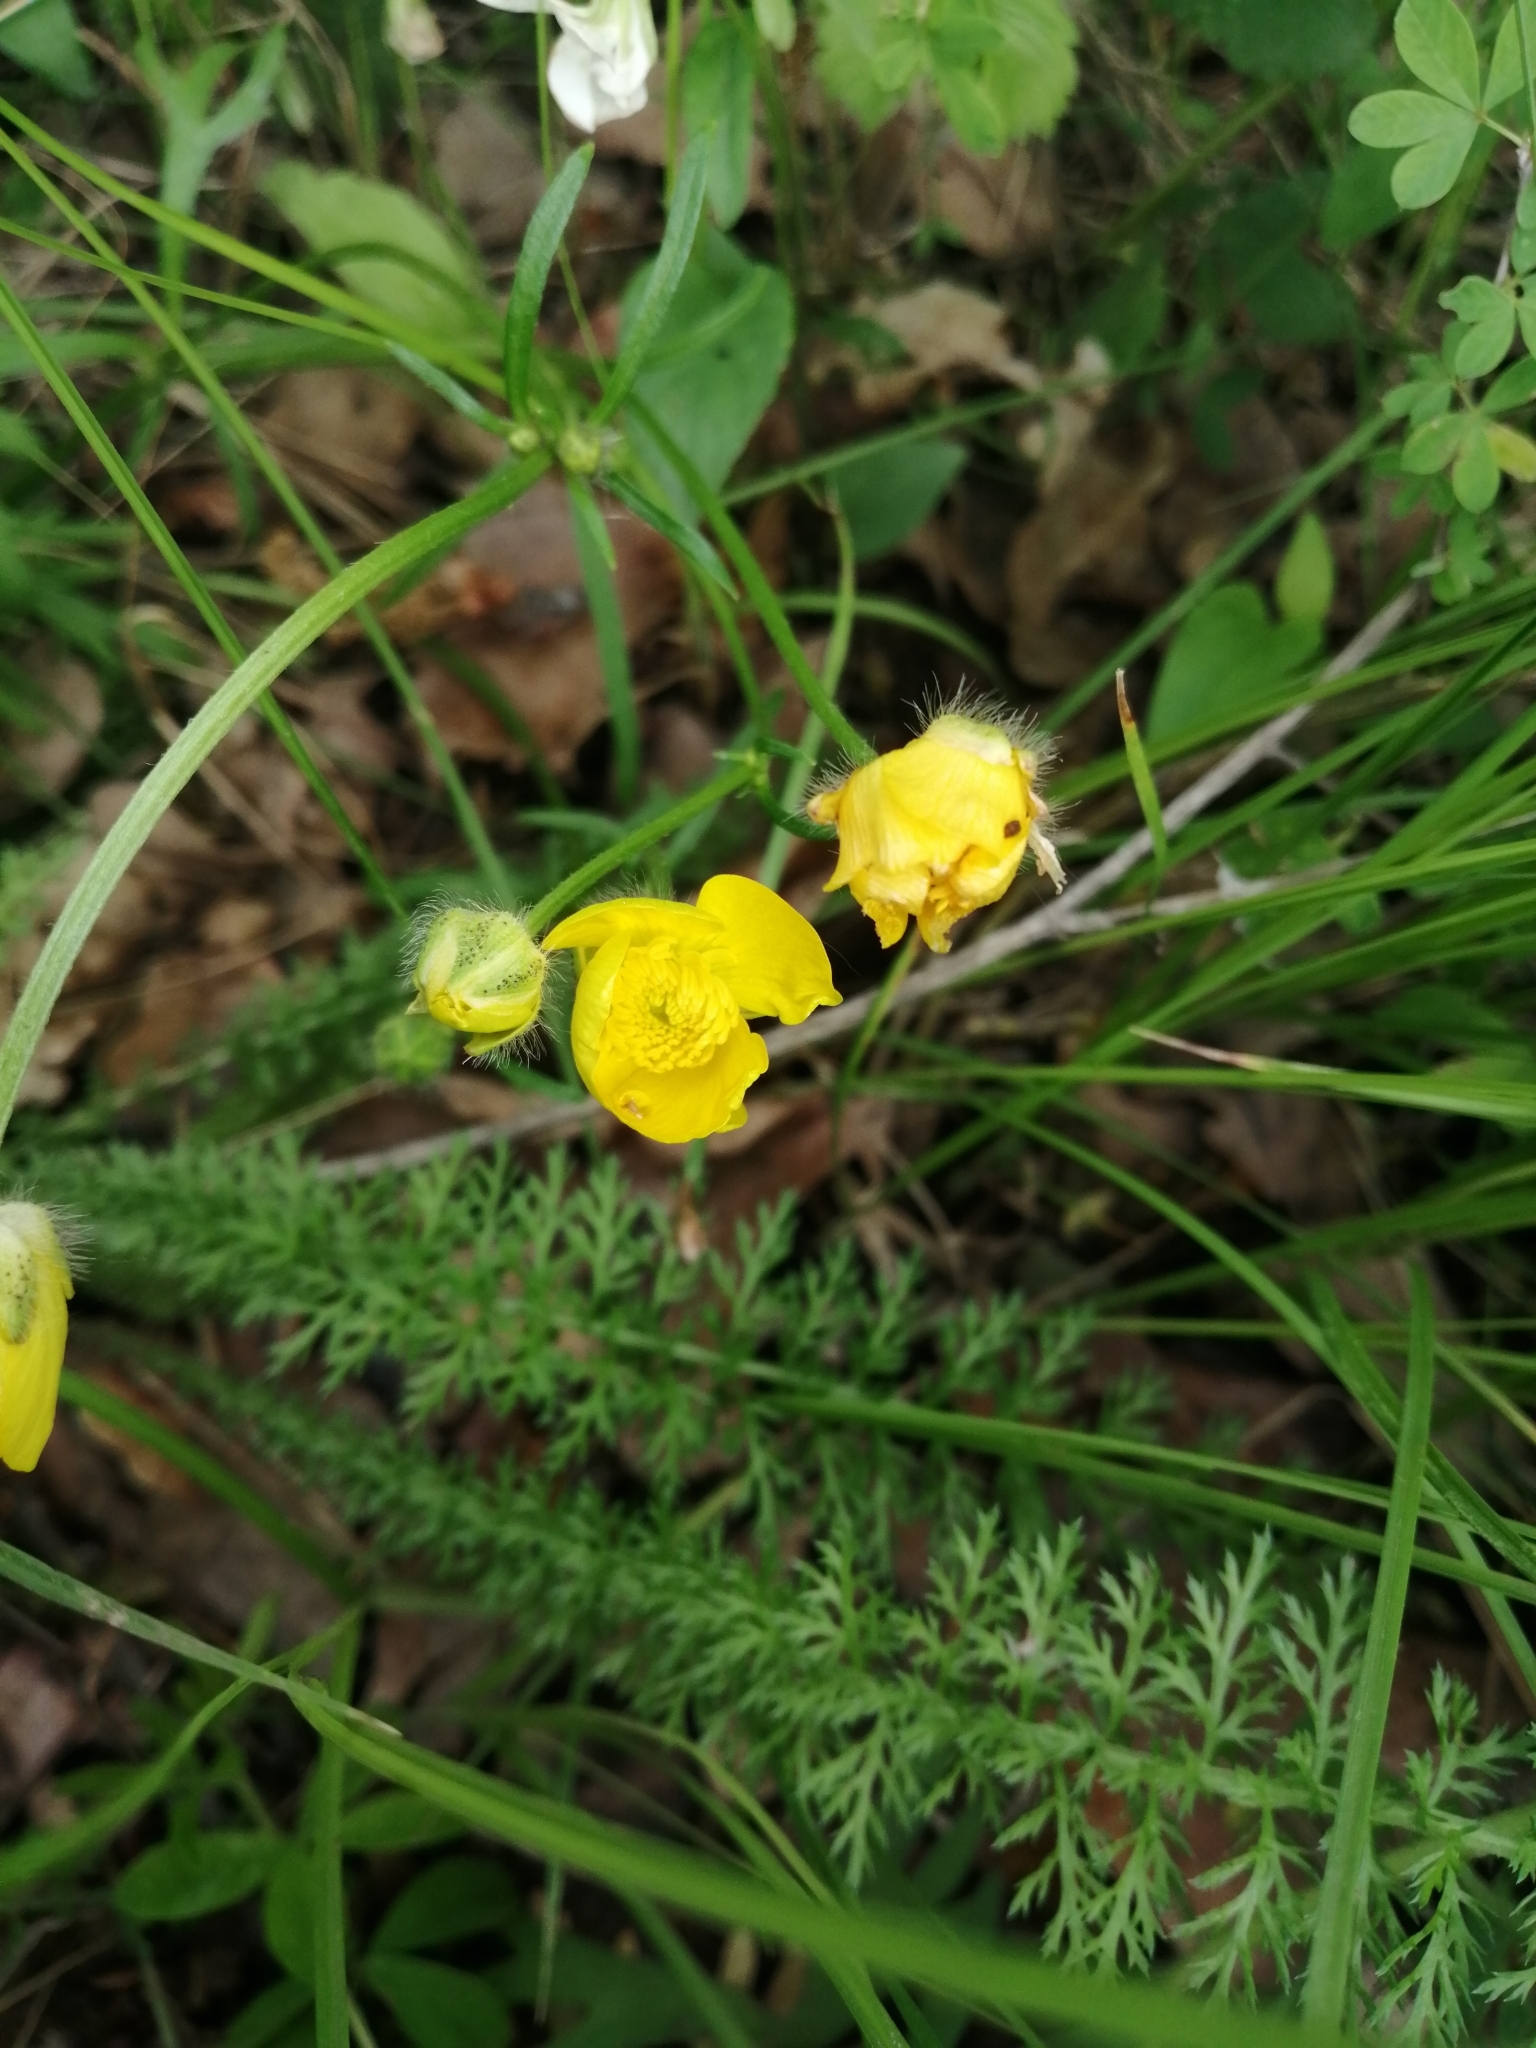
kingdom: Plantae
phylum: Tracheophyta
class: Magnoliopsida
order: Ranunculales
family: Ranunculaceae
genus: Ranunculus
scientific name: Ranunculus polyanthemos
